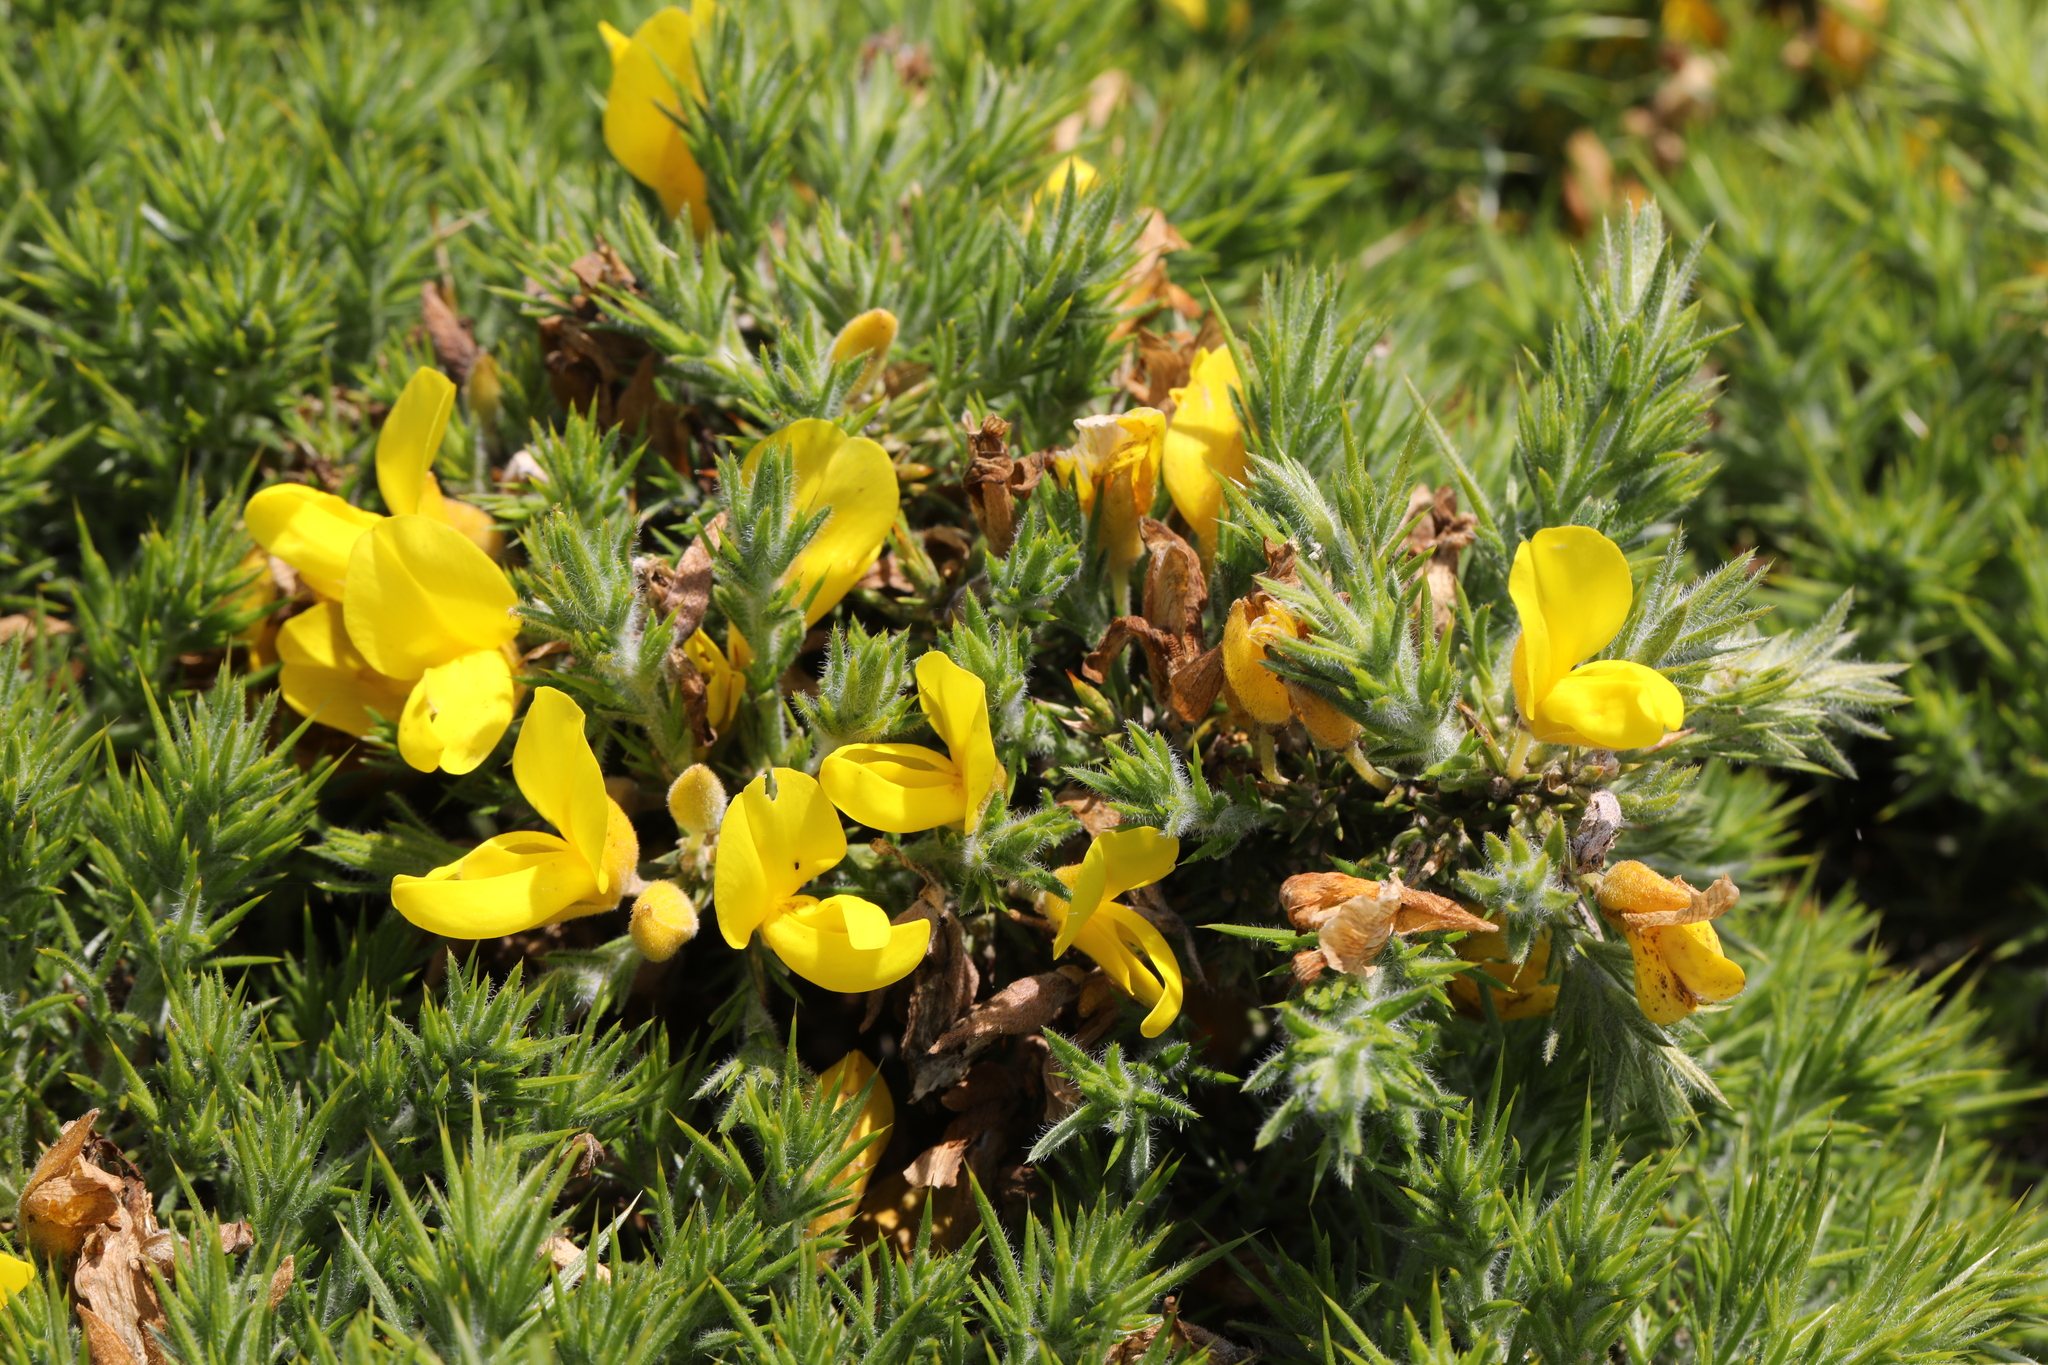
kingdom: Plantae
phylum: Tracheophyta
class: Magnoliopsida
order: Fabales
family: Fabaceae
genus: Ulex
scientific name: Ulex europaeus
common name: Common gorse
